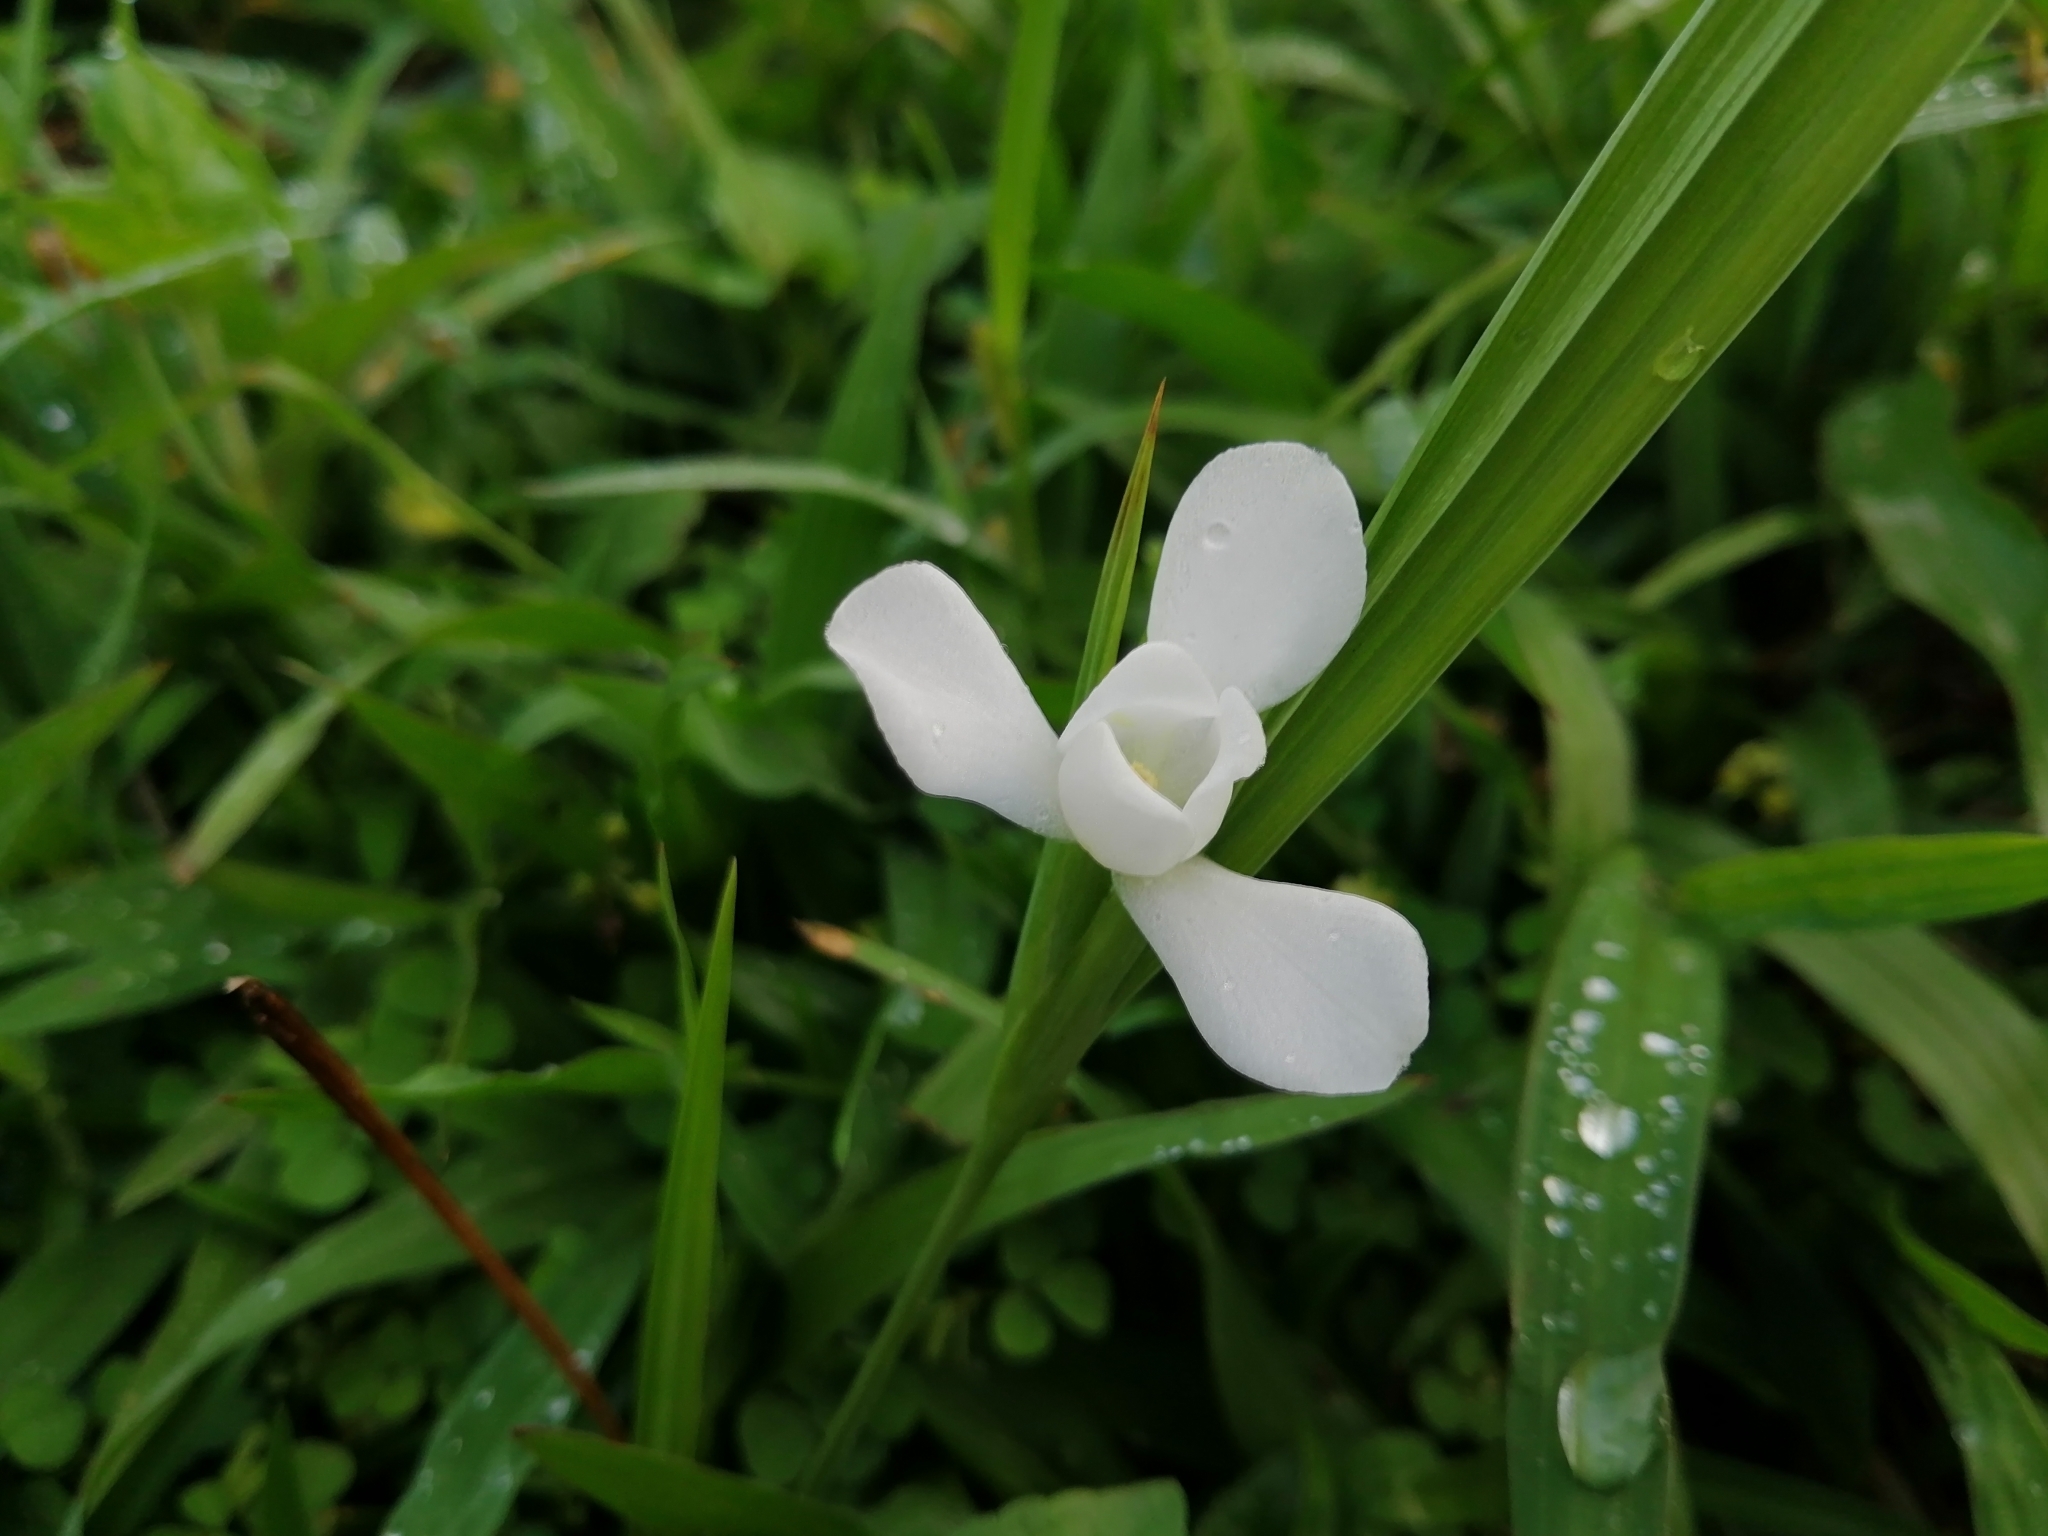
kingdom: Plantae
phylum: Tracheophyta
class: Liliopsida
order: Asparagales
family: Iridaceae
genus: Cipura
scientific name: Cipura campanulata
